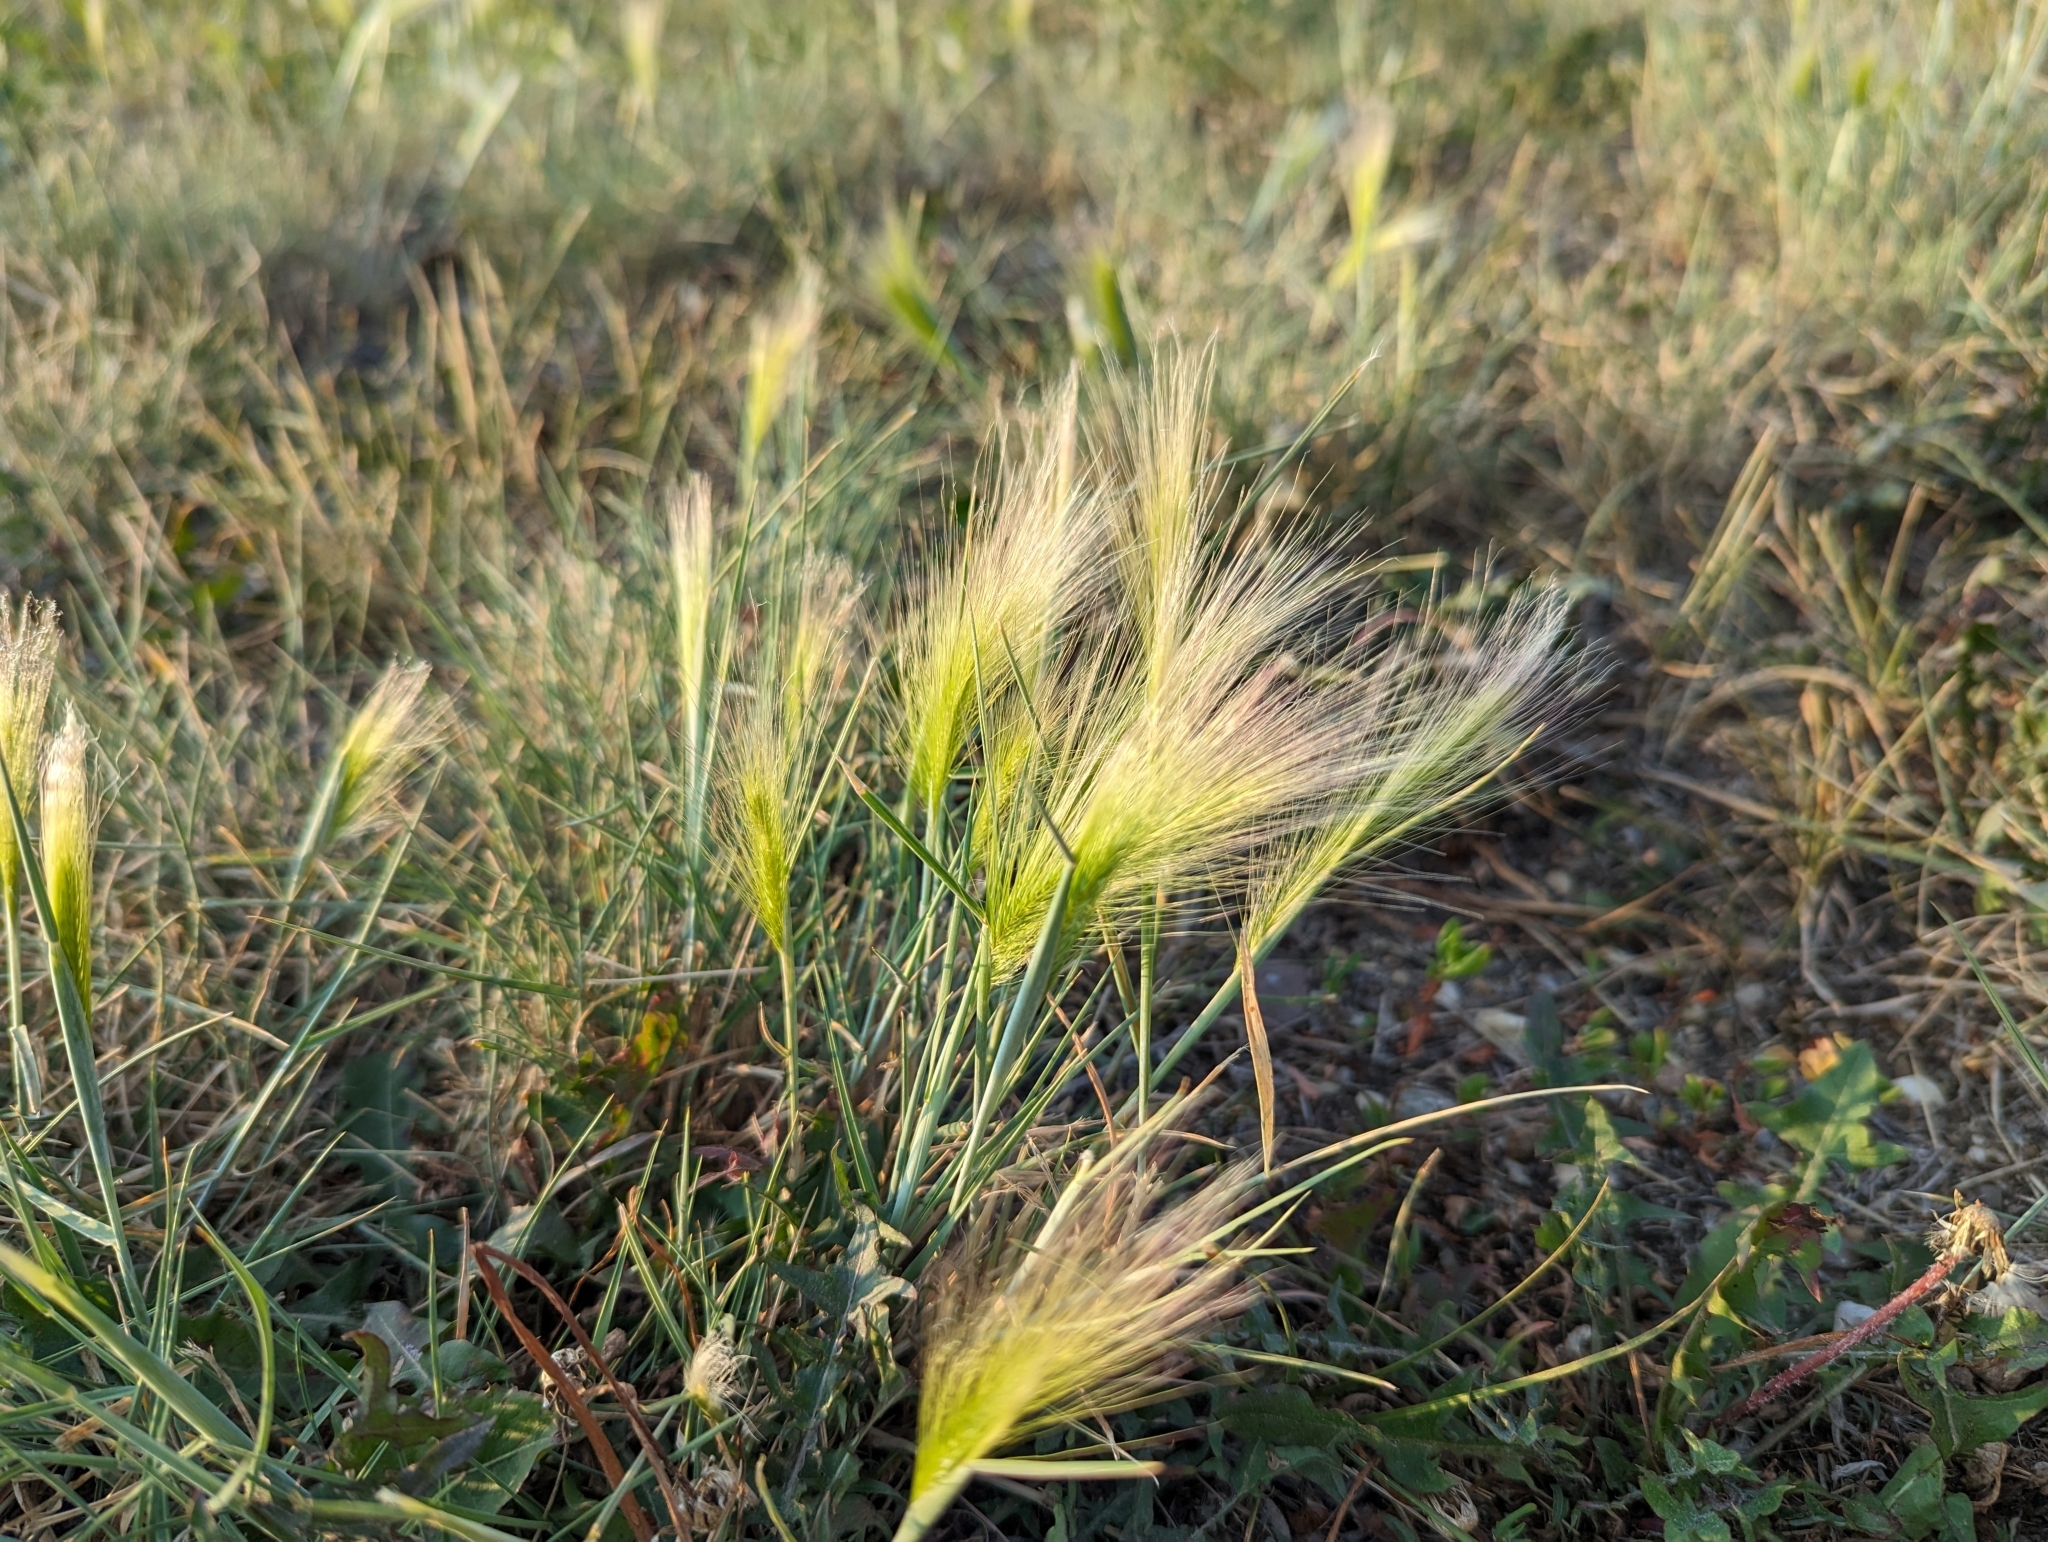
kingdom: Plantae
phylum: Tracheophyta
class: Liliopsida
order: Poales
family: Poaceae
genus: Hordeum
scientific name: Hordeum jubatum
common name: Foxtail barley
